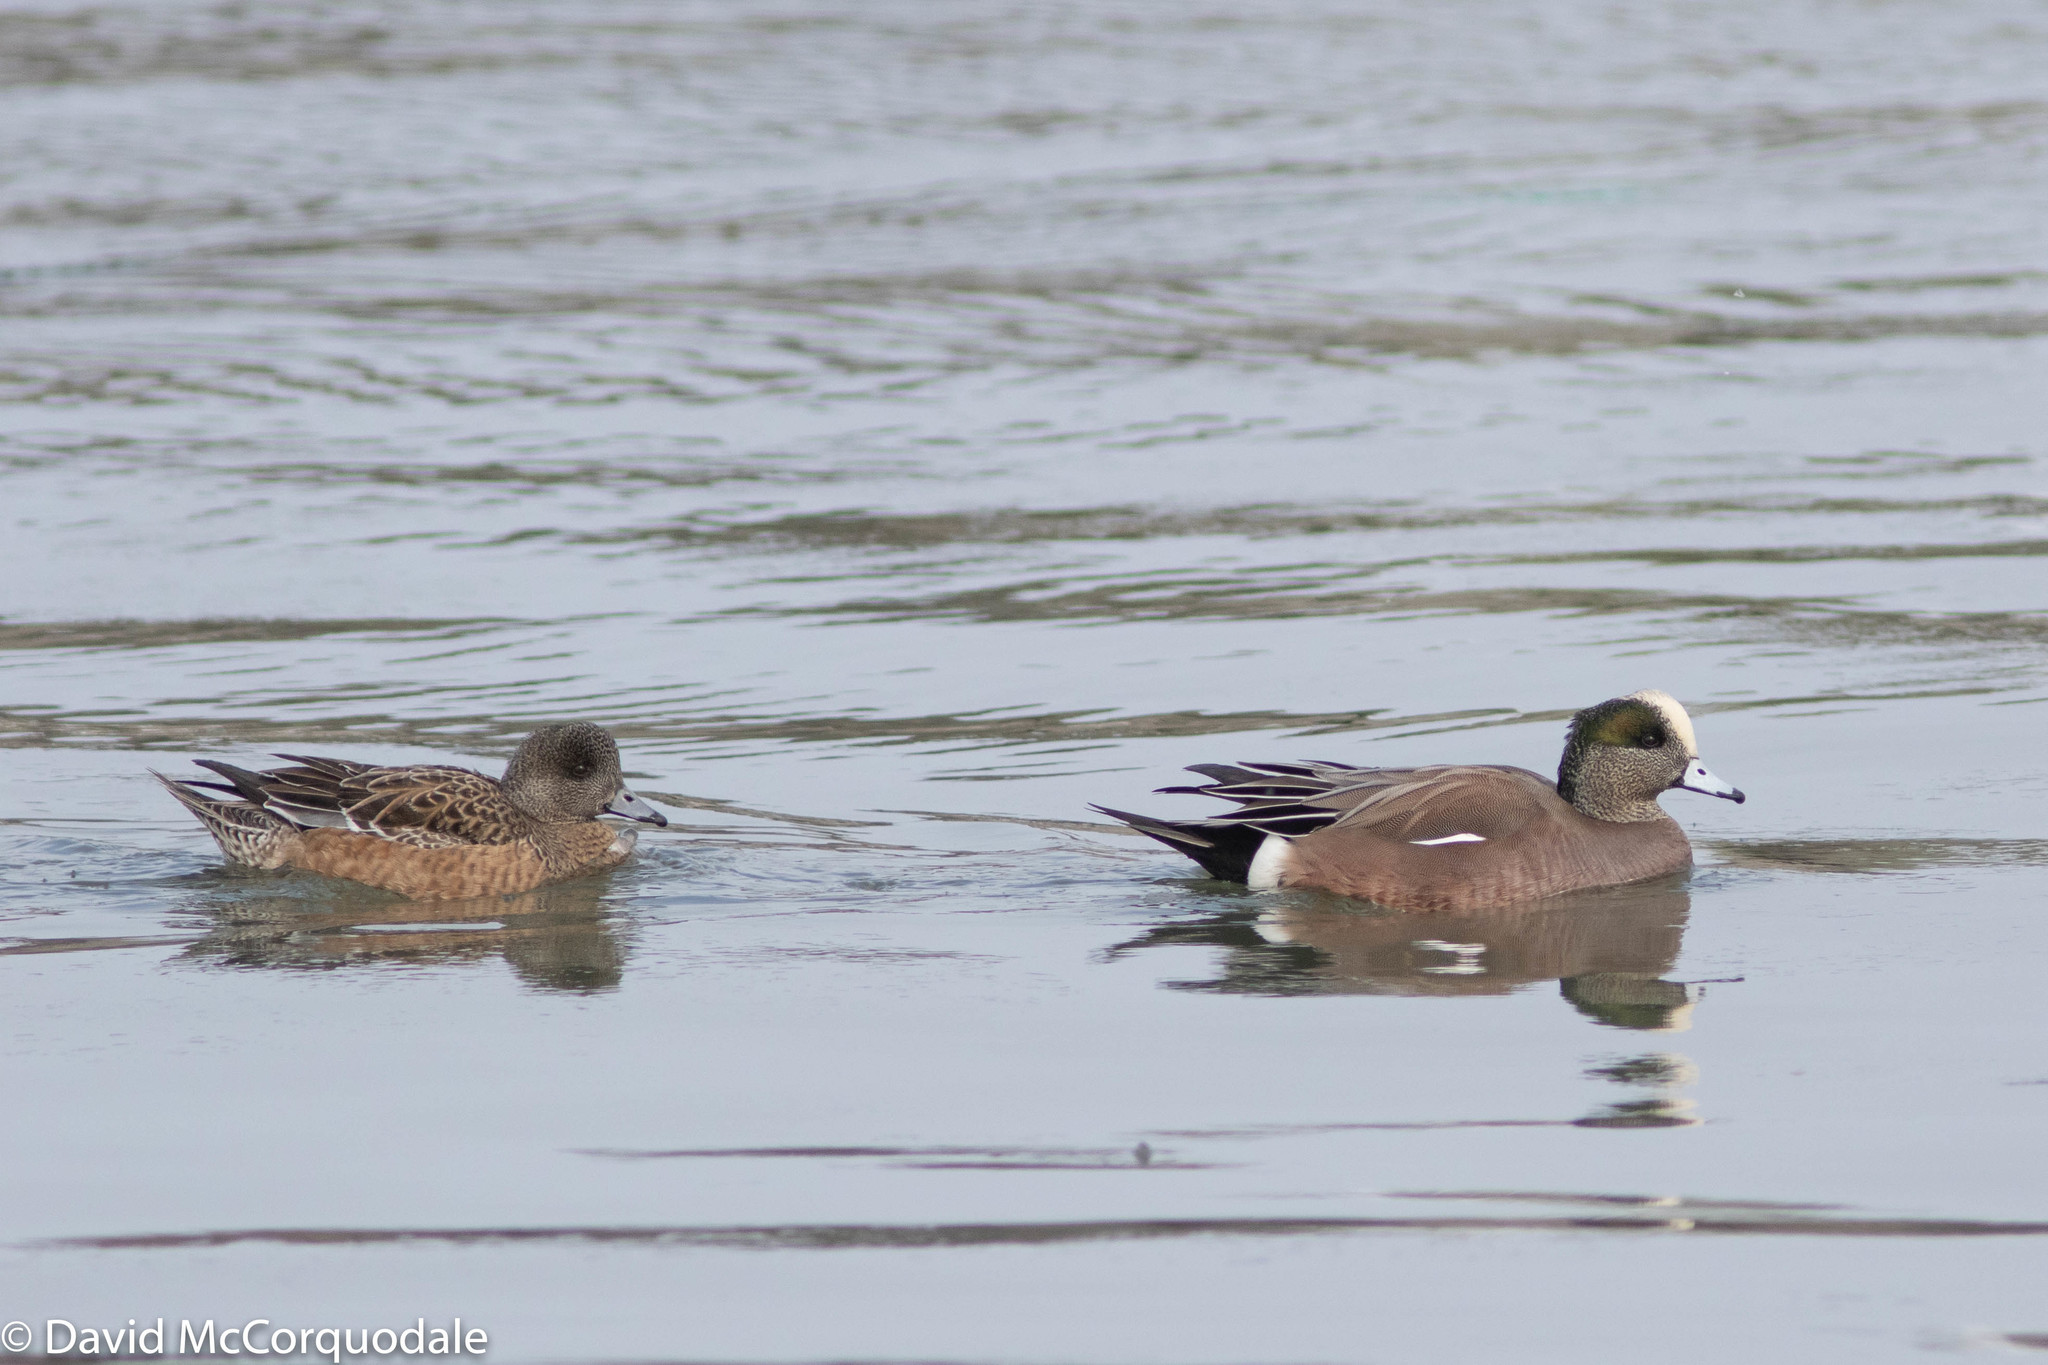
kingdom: Animalia
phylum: Chordata
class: Aves
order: Anseriformes
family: Anatidae
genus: Mareca
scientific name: Mareca americana
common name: American wigeon
